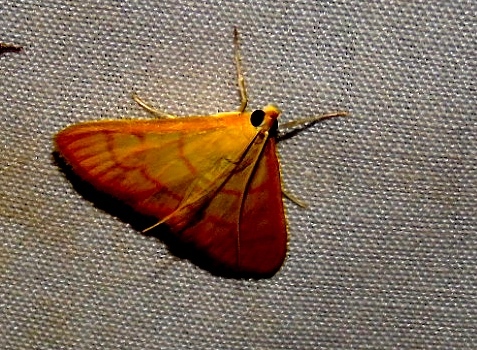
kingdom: Animalia
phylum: Arthropoda
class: Insecta
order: Lepidoptera
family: Crambidae
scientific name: Crambidae
